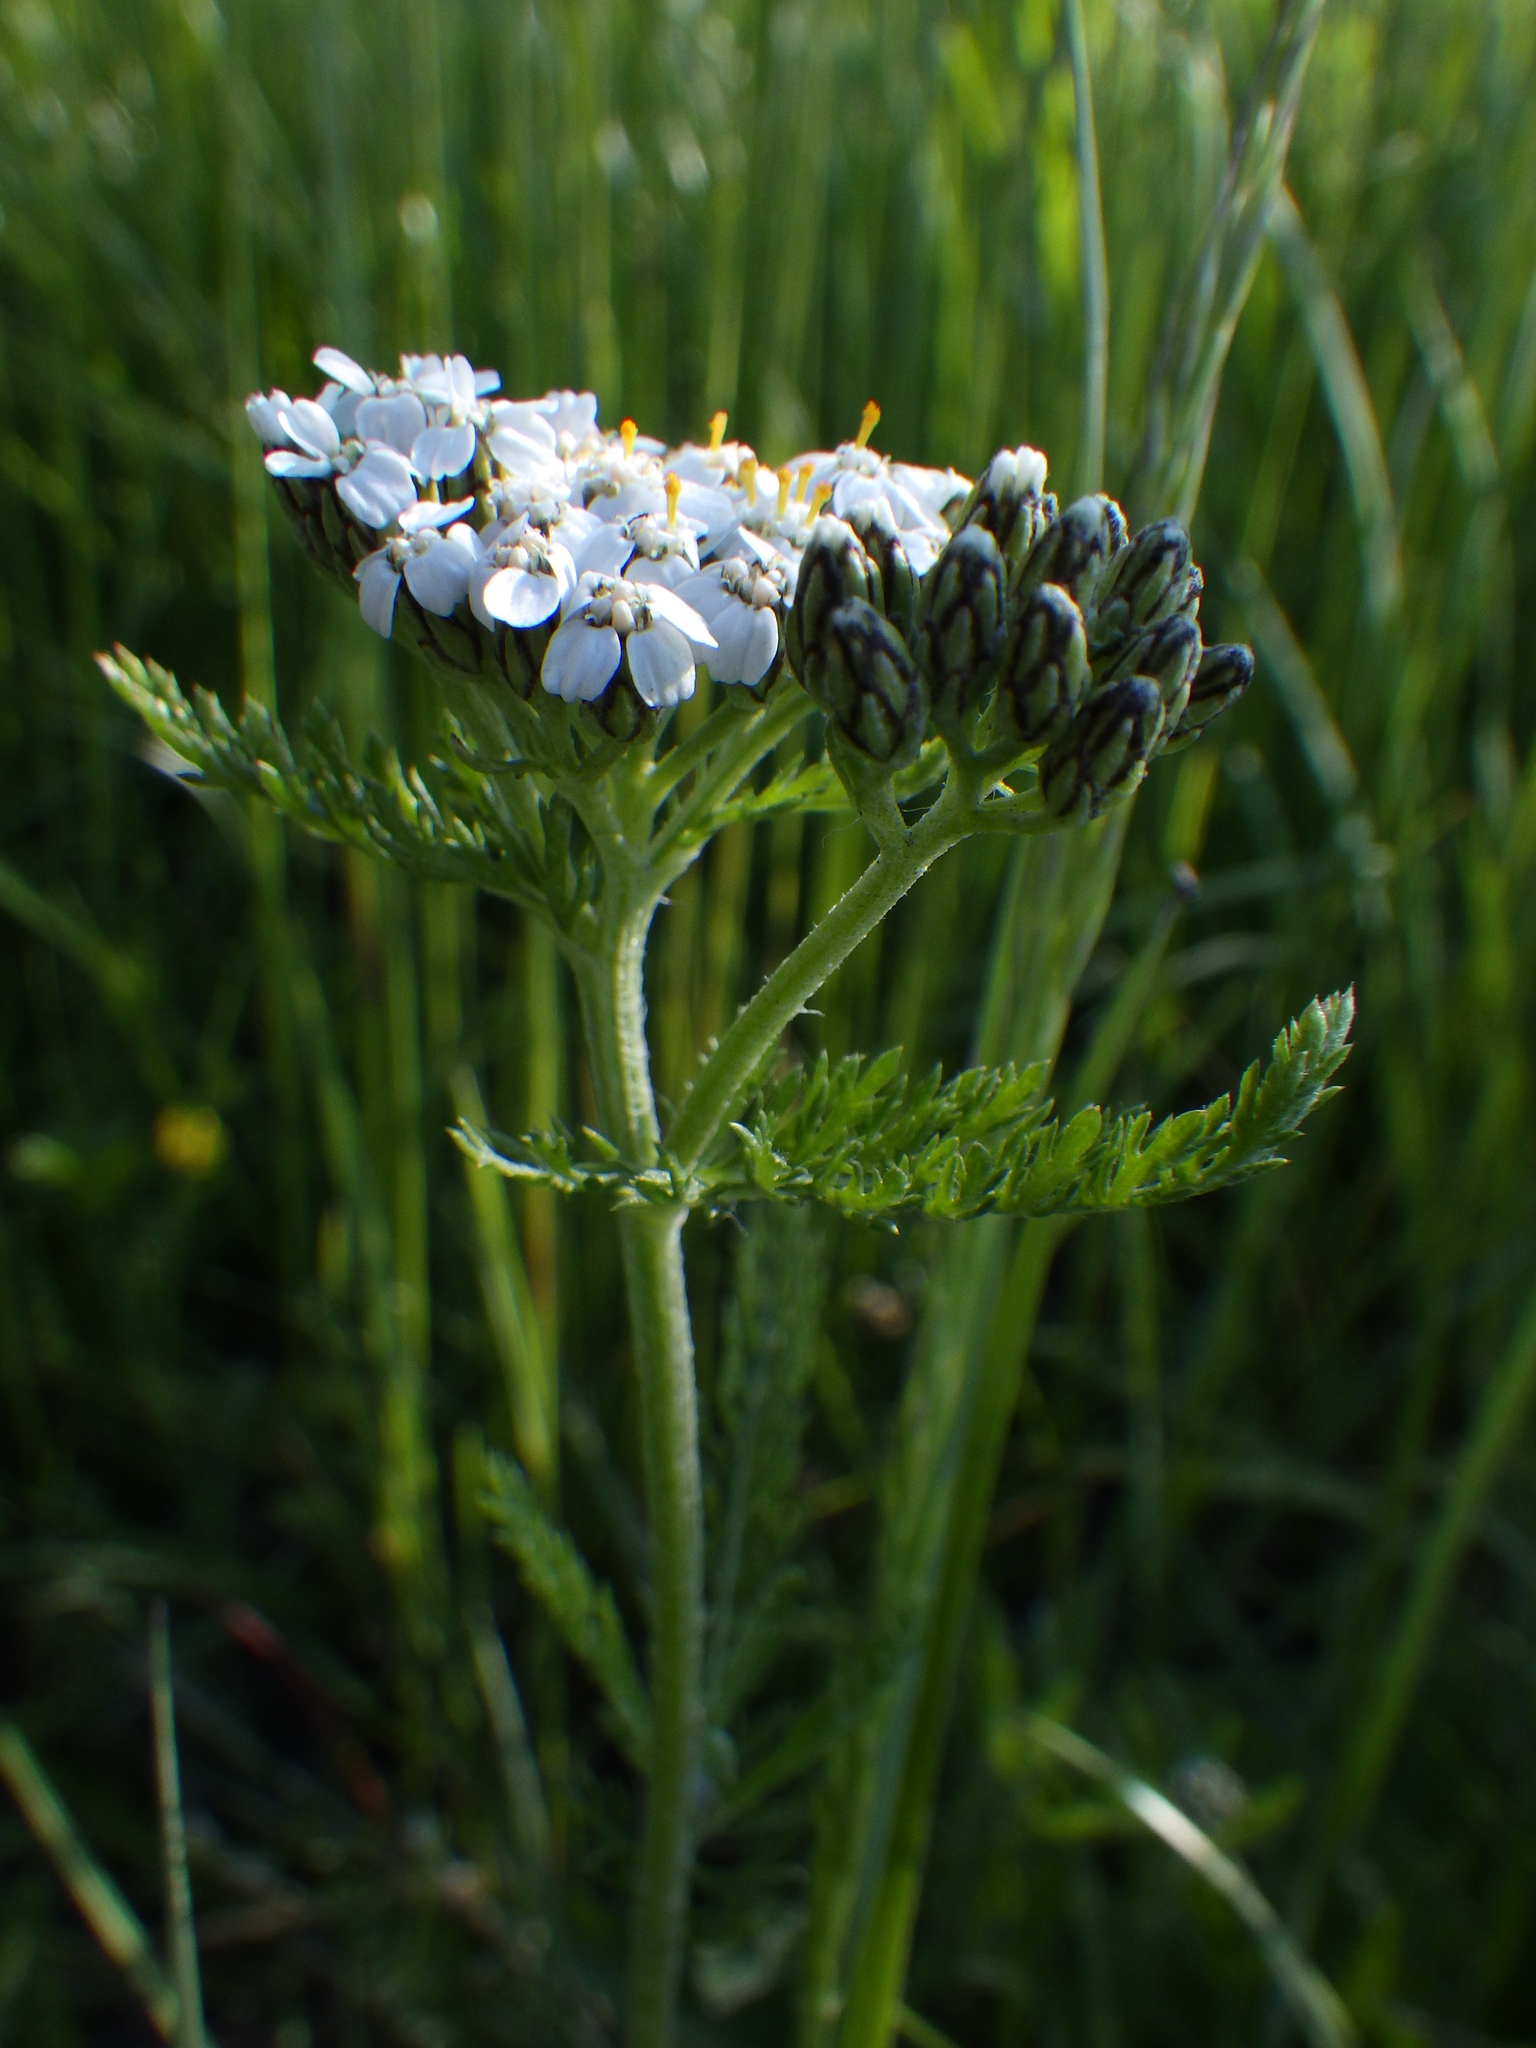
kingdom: Plantae
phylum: Tracheophyta
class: Magnoliopsida
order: Asterales
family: Asteraceae
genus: Achillea
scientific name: Achillea millefolium
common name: Yarrow
